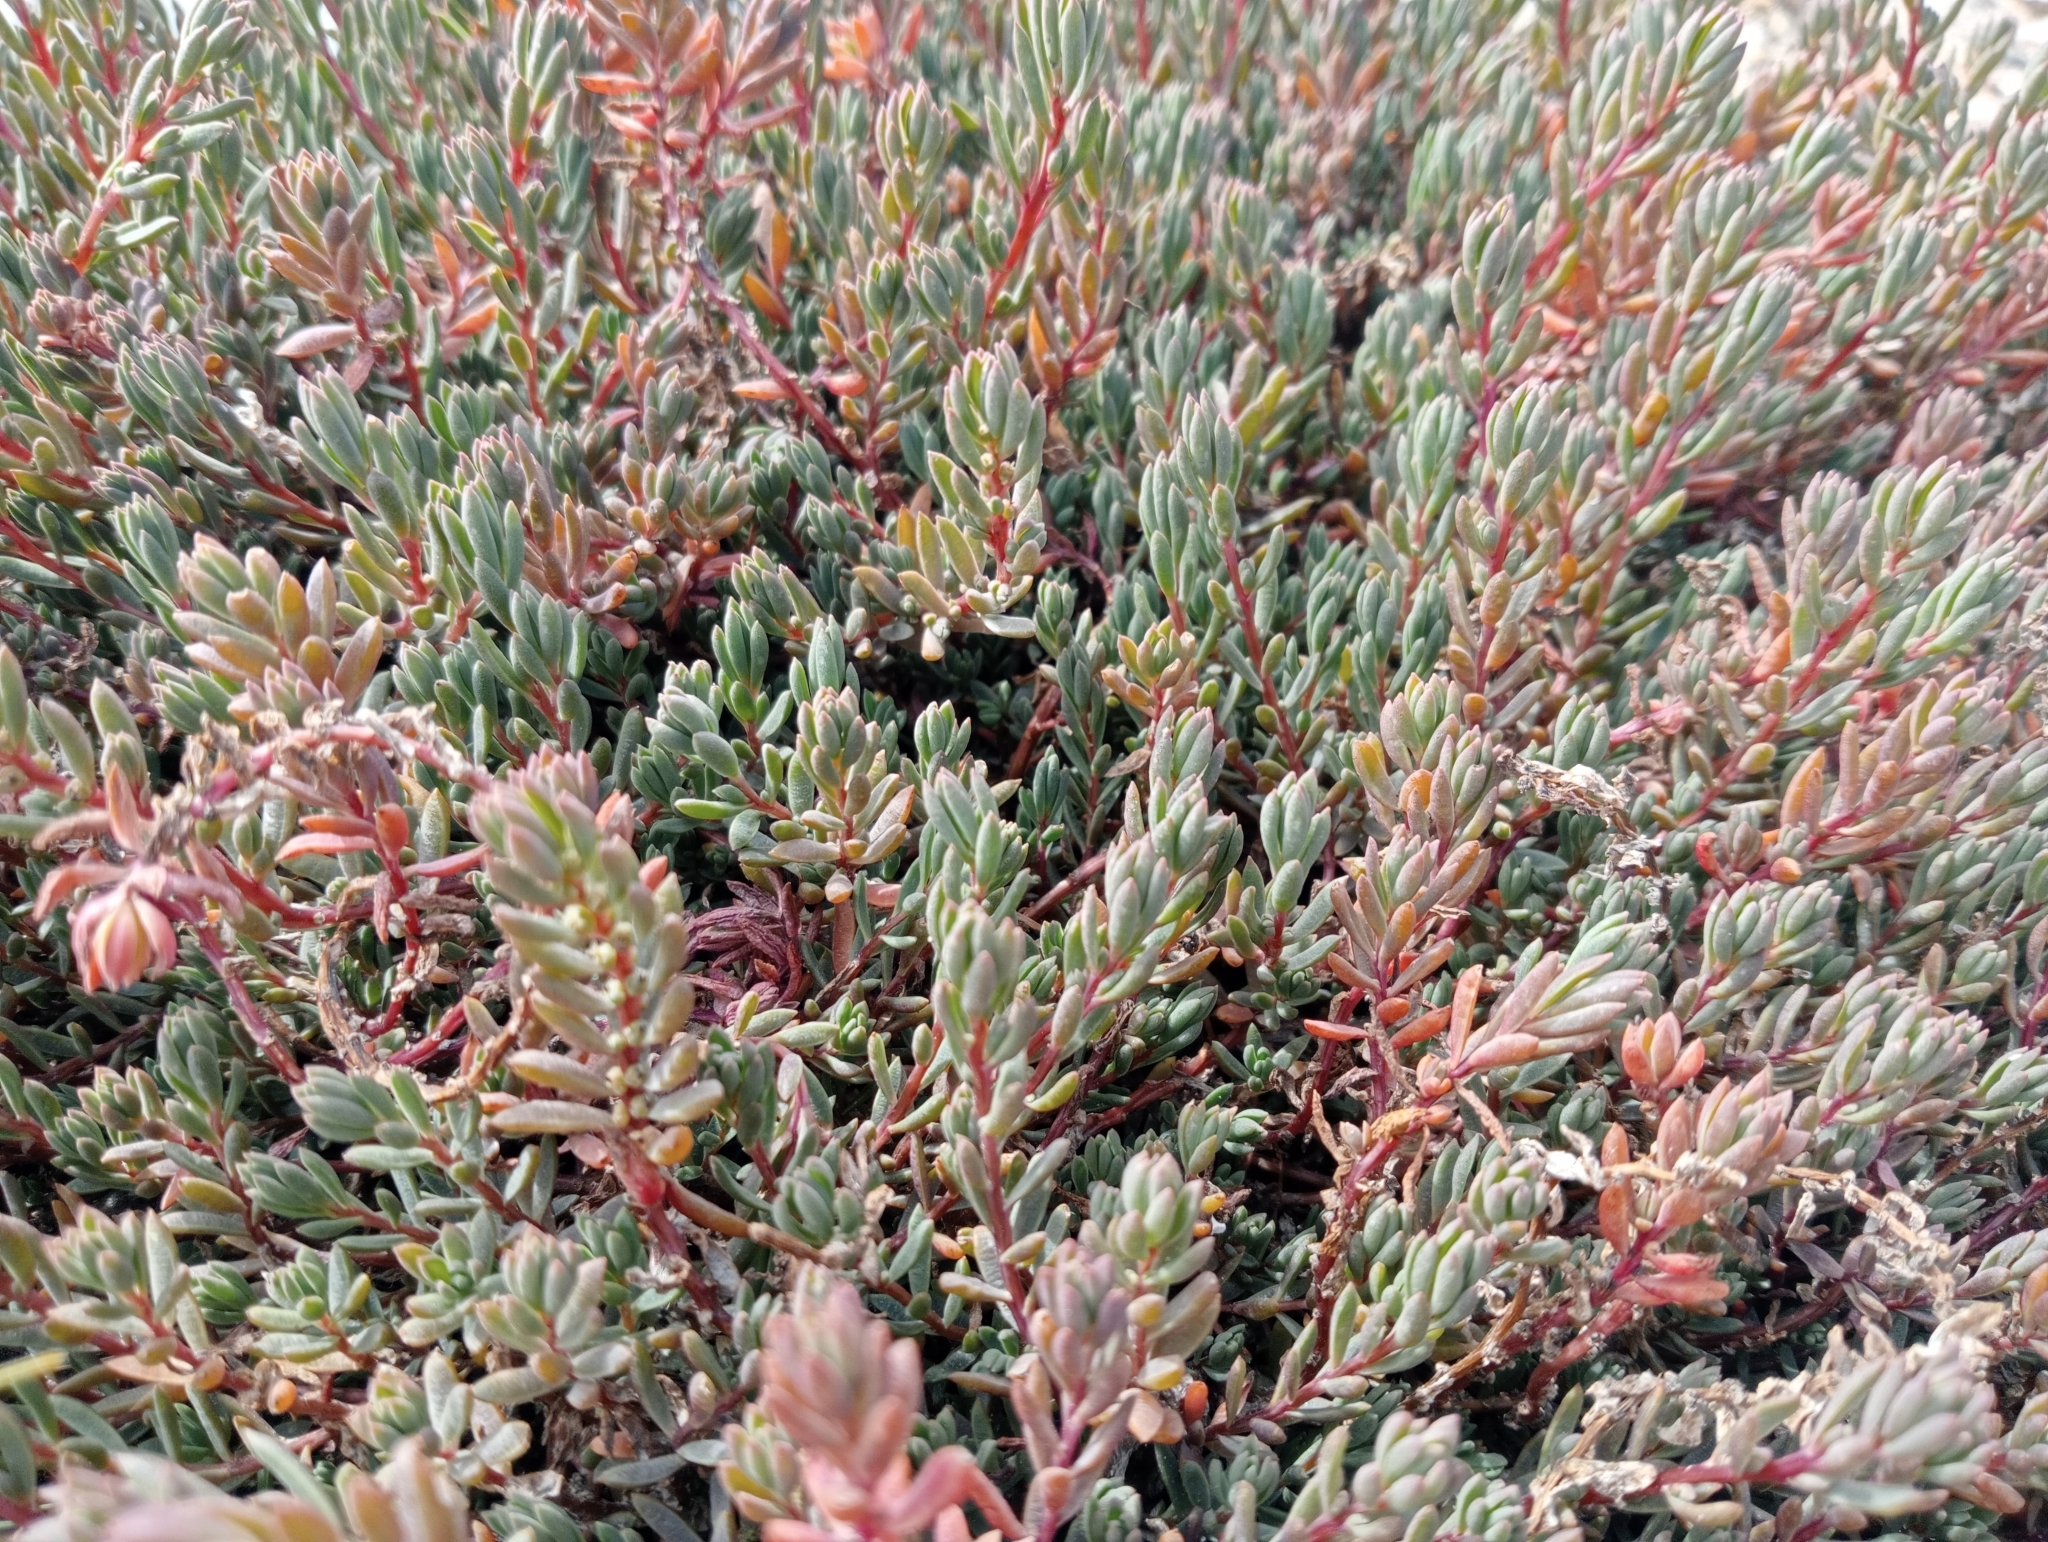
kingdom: Plantae
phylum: Tracheophyta
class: Magnoliopsida
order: Caryophyllales
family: Amaranthaceae
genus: Suaeda
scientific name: Suaeda novae-zelandiae
